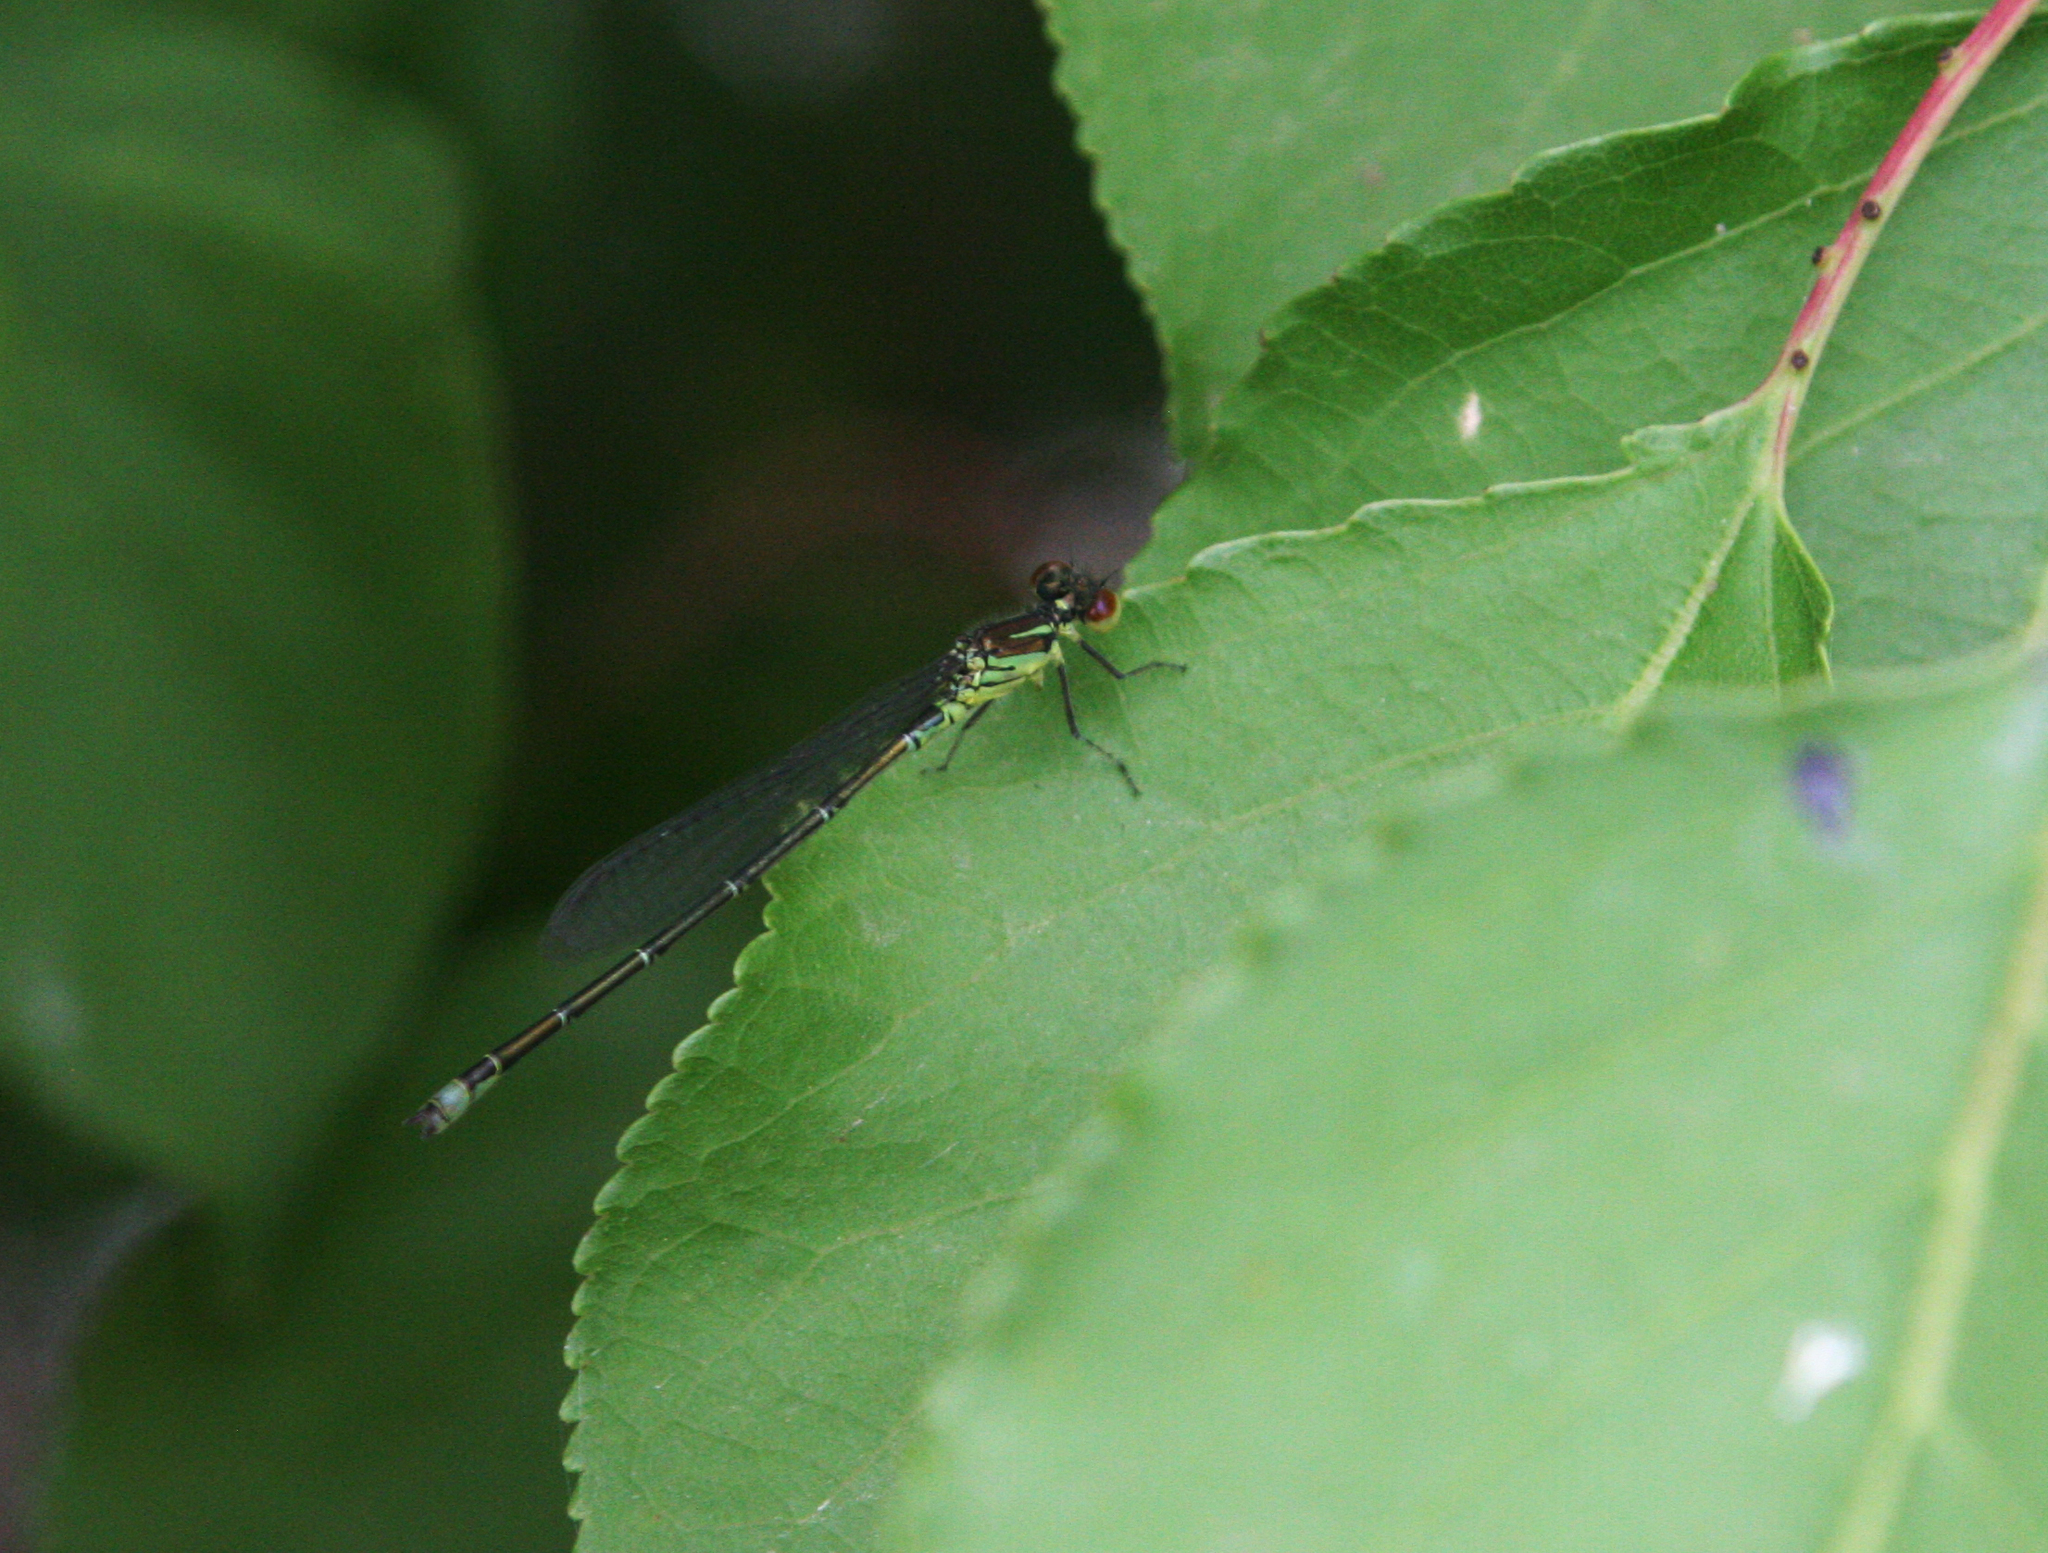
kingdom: Animalia
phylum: Arthropoda
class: Insecta
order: Odonata
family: Coenagrionidae
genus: Erythromma
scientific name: Erythromma viridulum
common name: Small red-eyed damselfly
